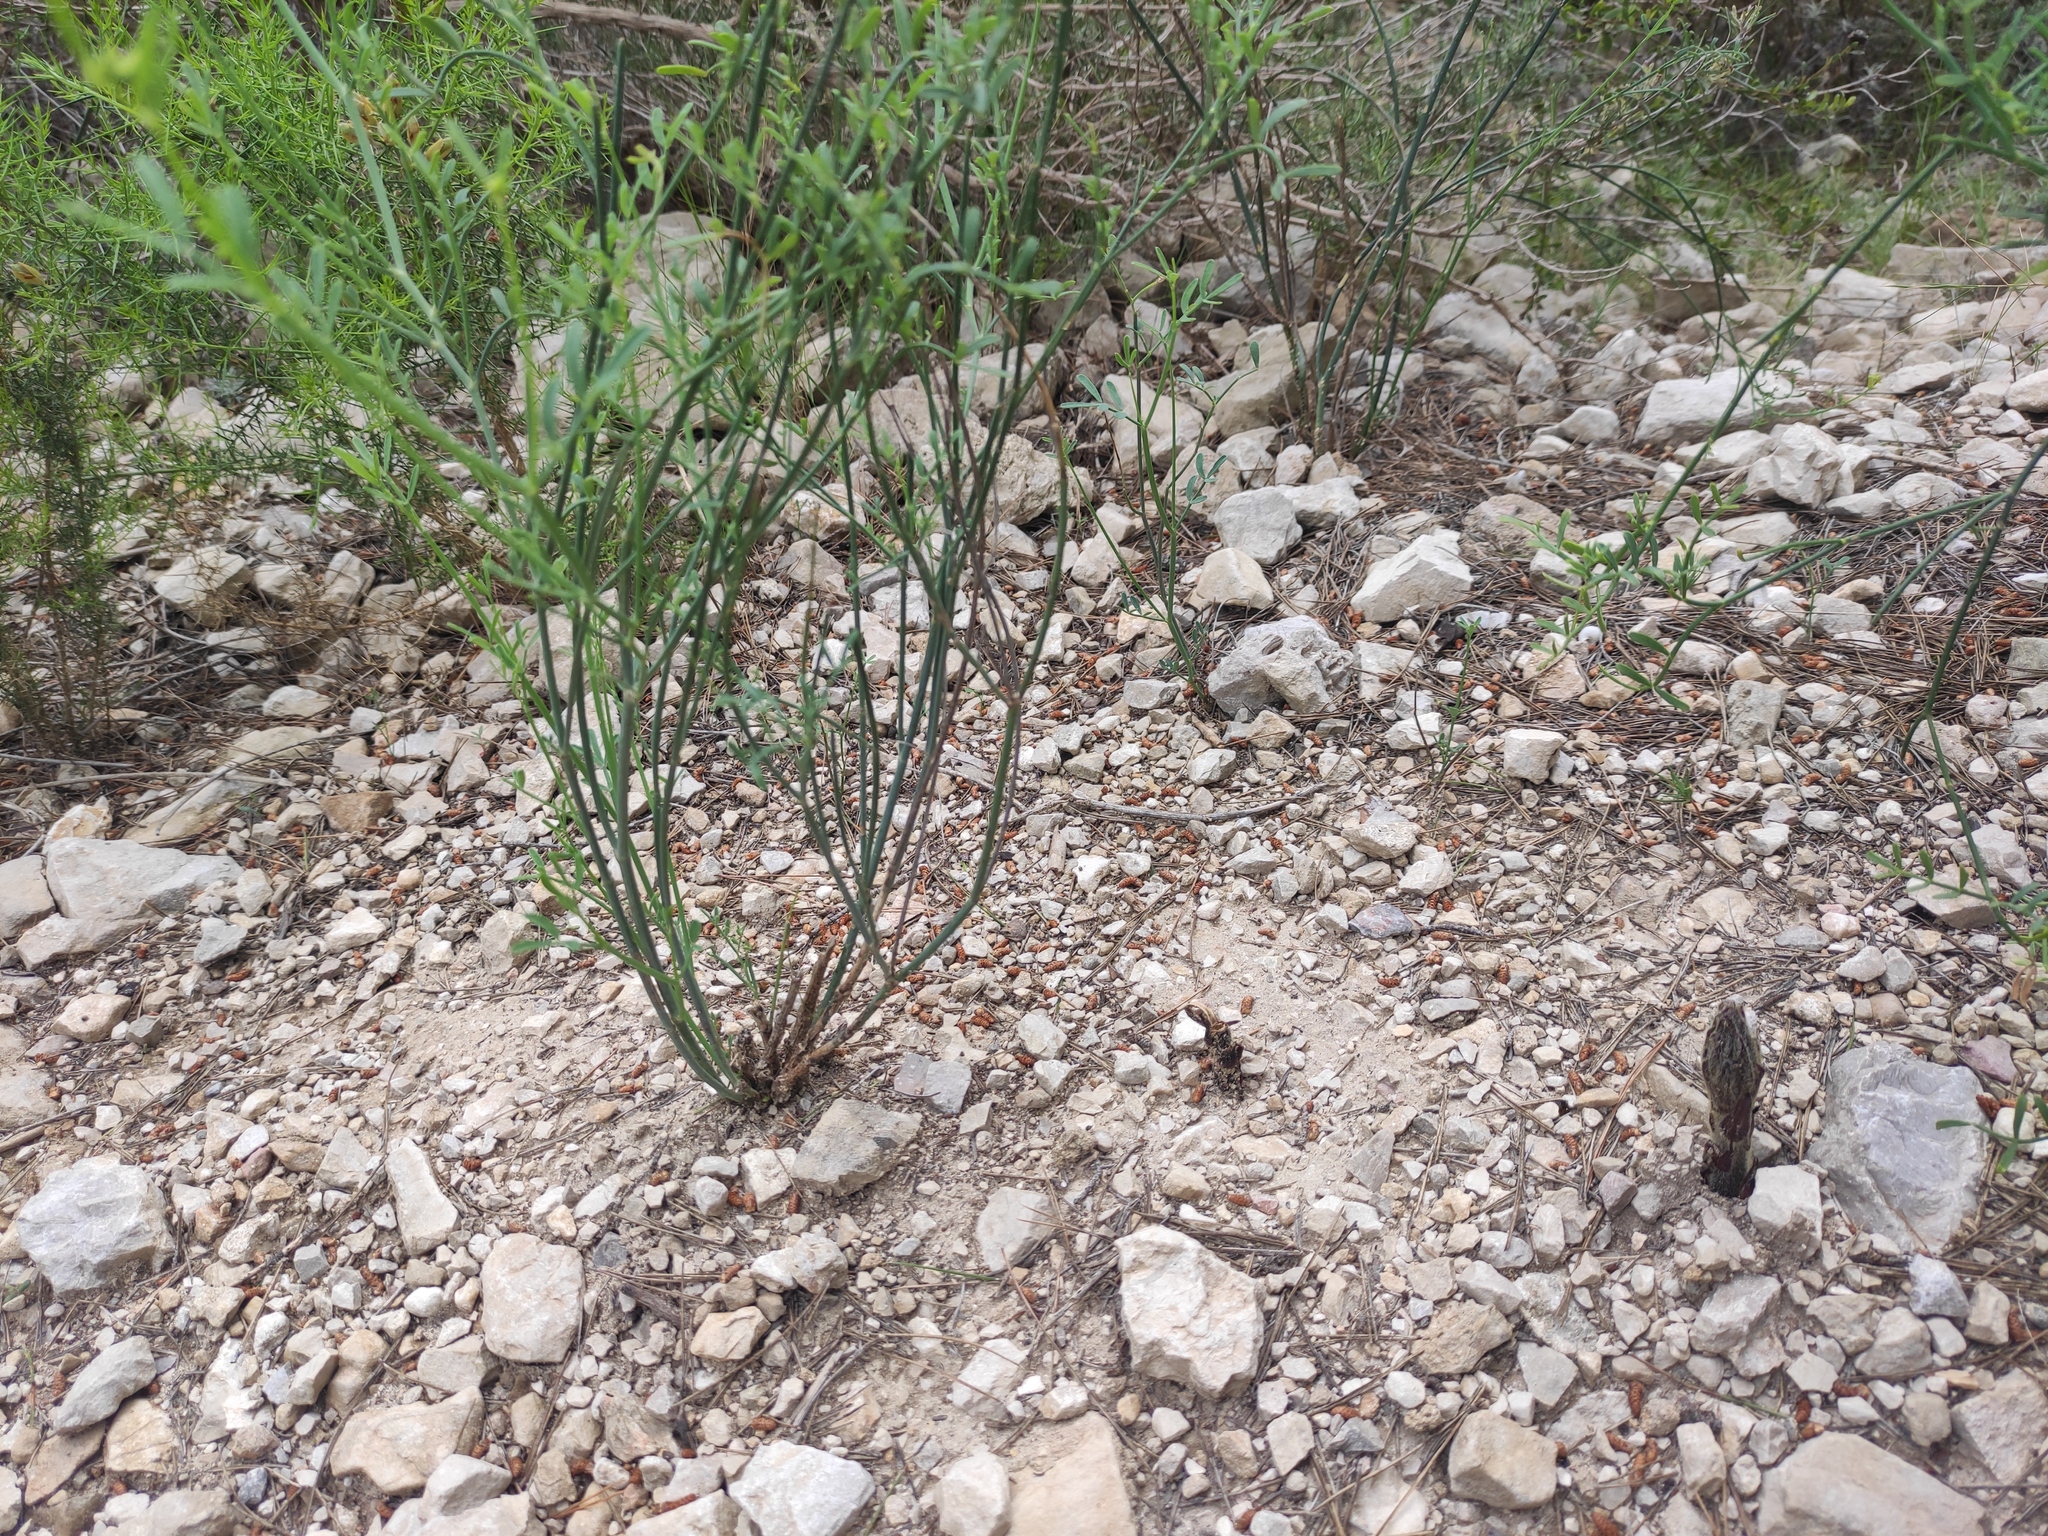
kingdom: Plantae
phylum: Tracheophyta
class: Magnoliopsida
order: Fabales
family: Fabaceae
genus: Coronilla
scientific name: Coronilla juncea
